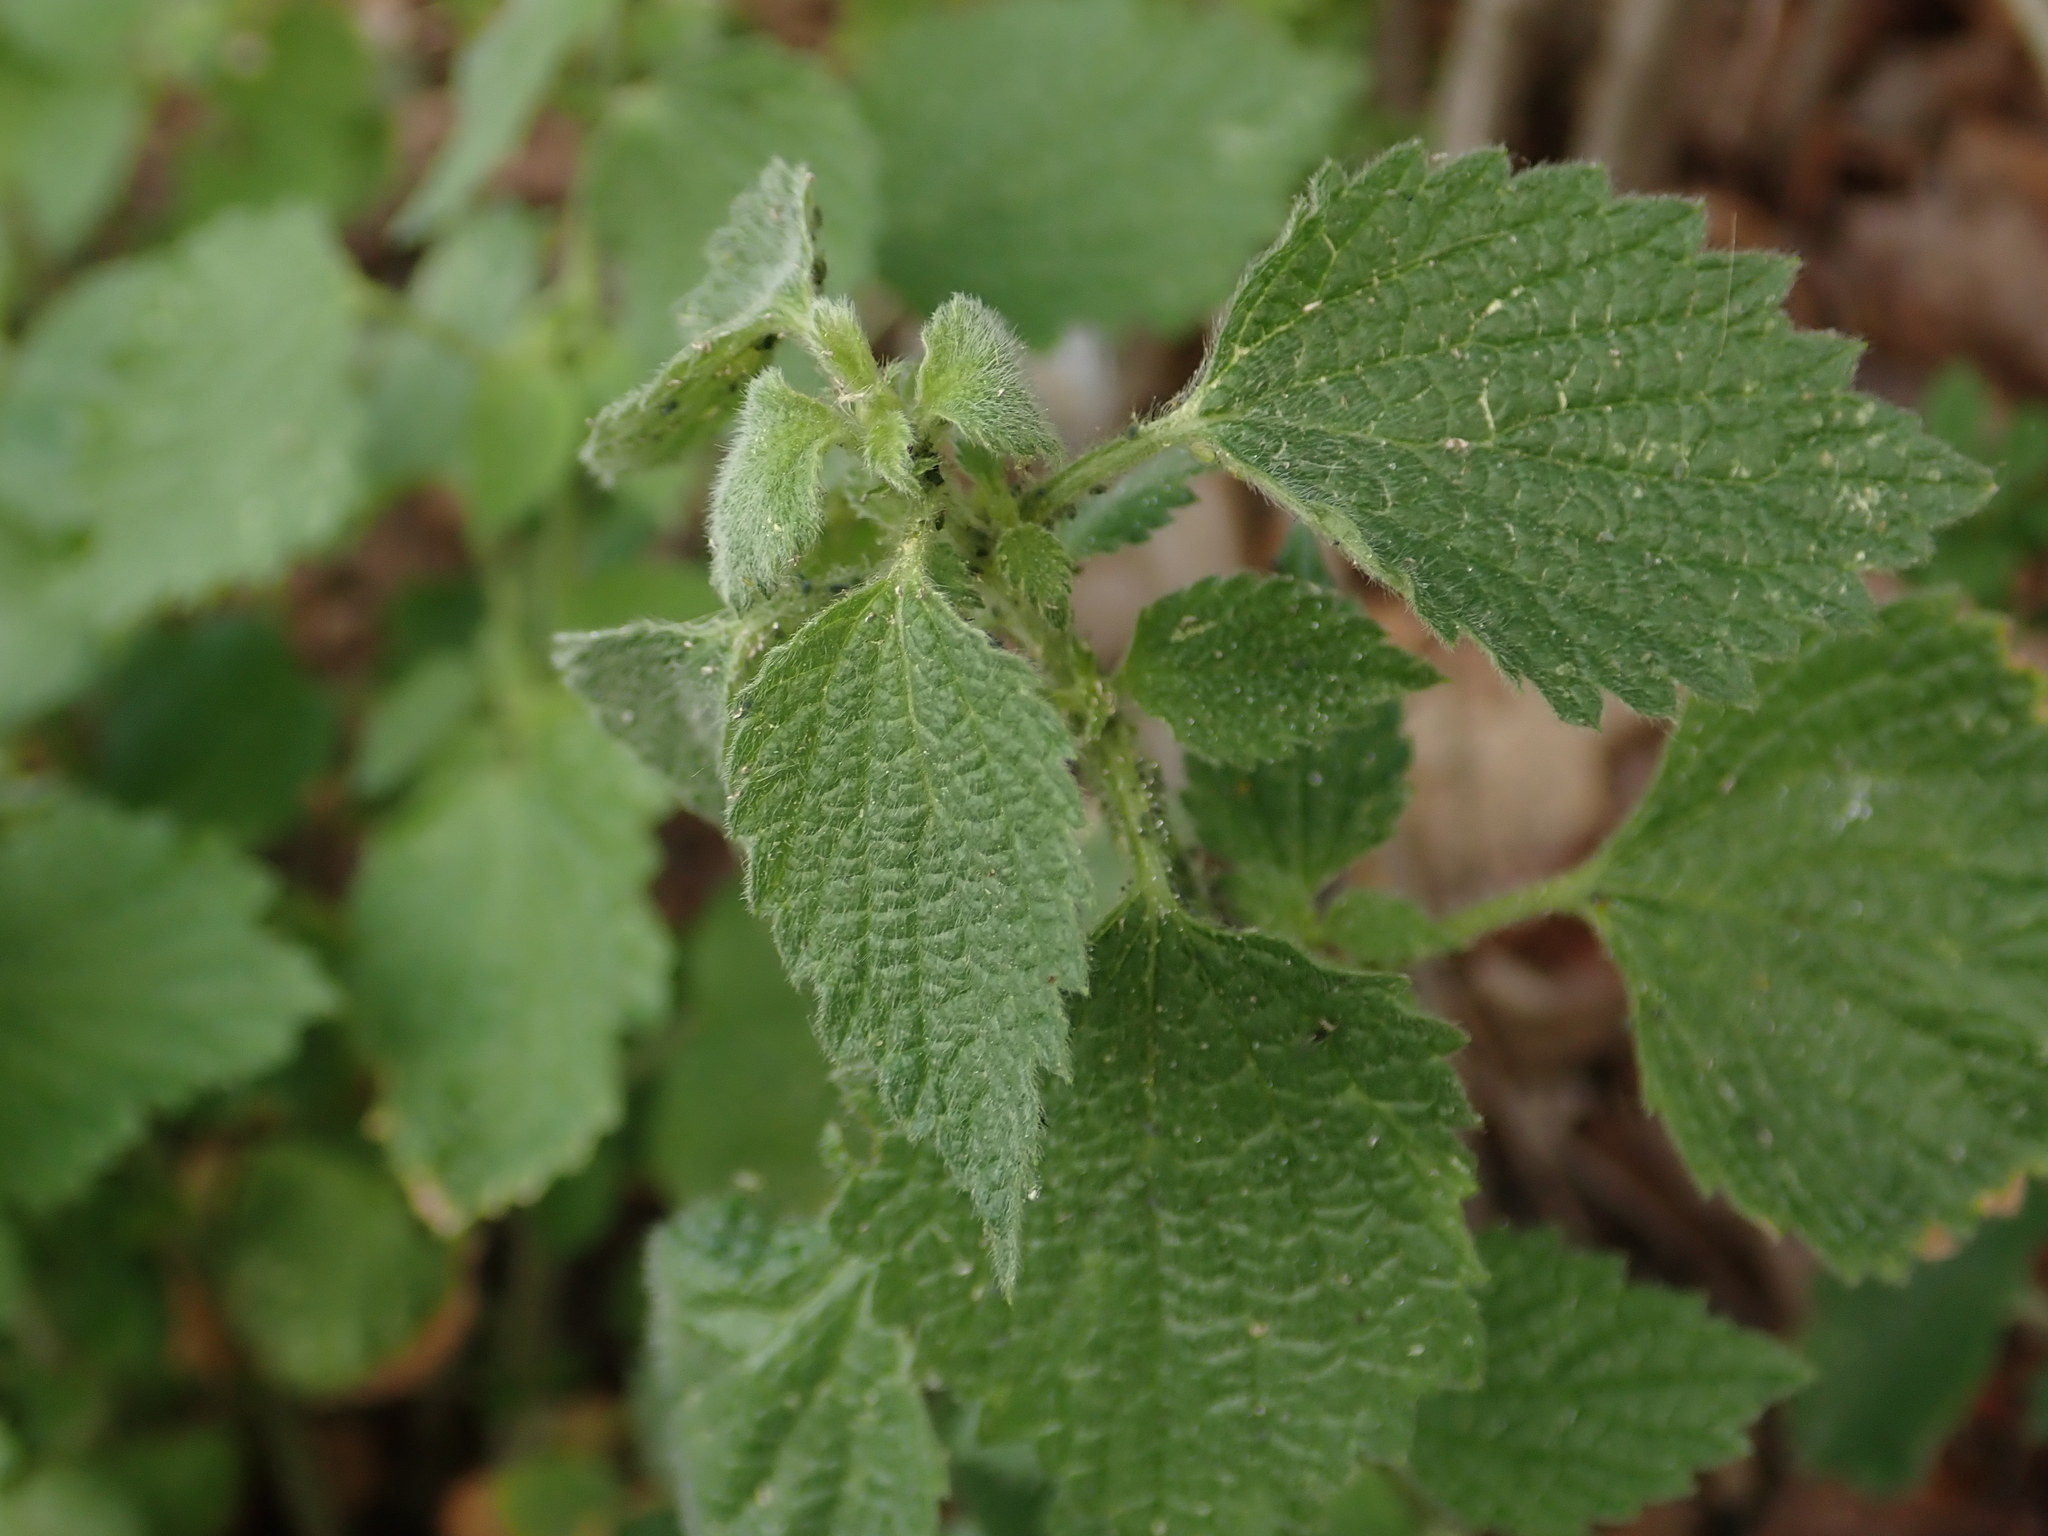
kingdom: Plantae
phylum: Tracheophyta
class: Magnoliopsida
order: Lamiales
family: Lamiaceae
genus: Ballota
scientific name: Ballota nigra
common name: Black horehound
